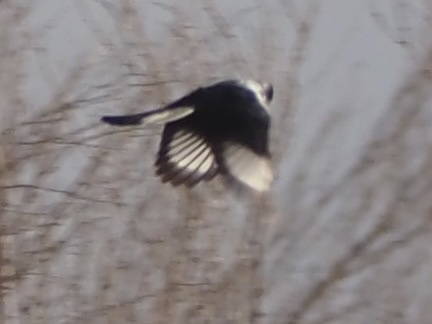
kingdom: Animalia
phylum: Chordata
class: Aves
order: Passeriformes
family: Ptilogonatidae
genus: Phainopepla
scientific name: Phainopepla nitens
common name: Phainopepla
